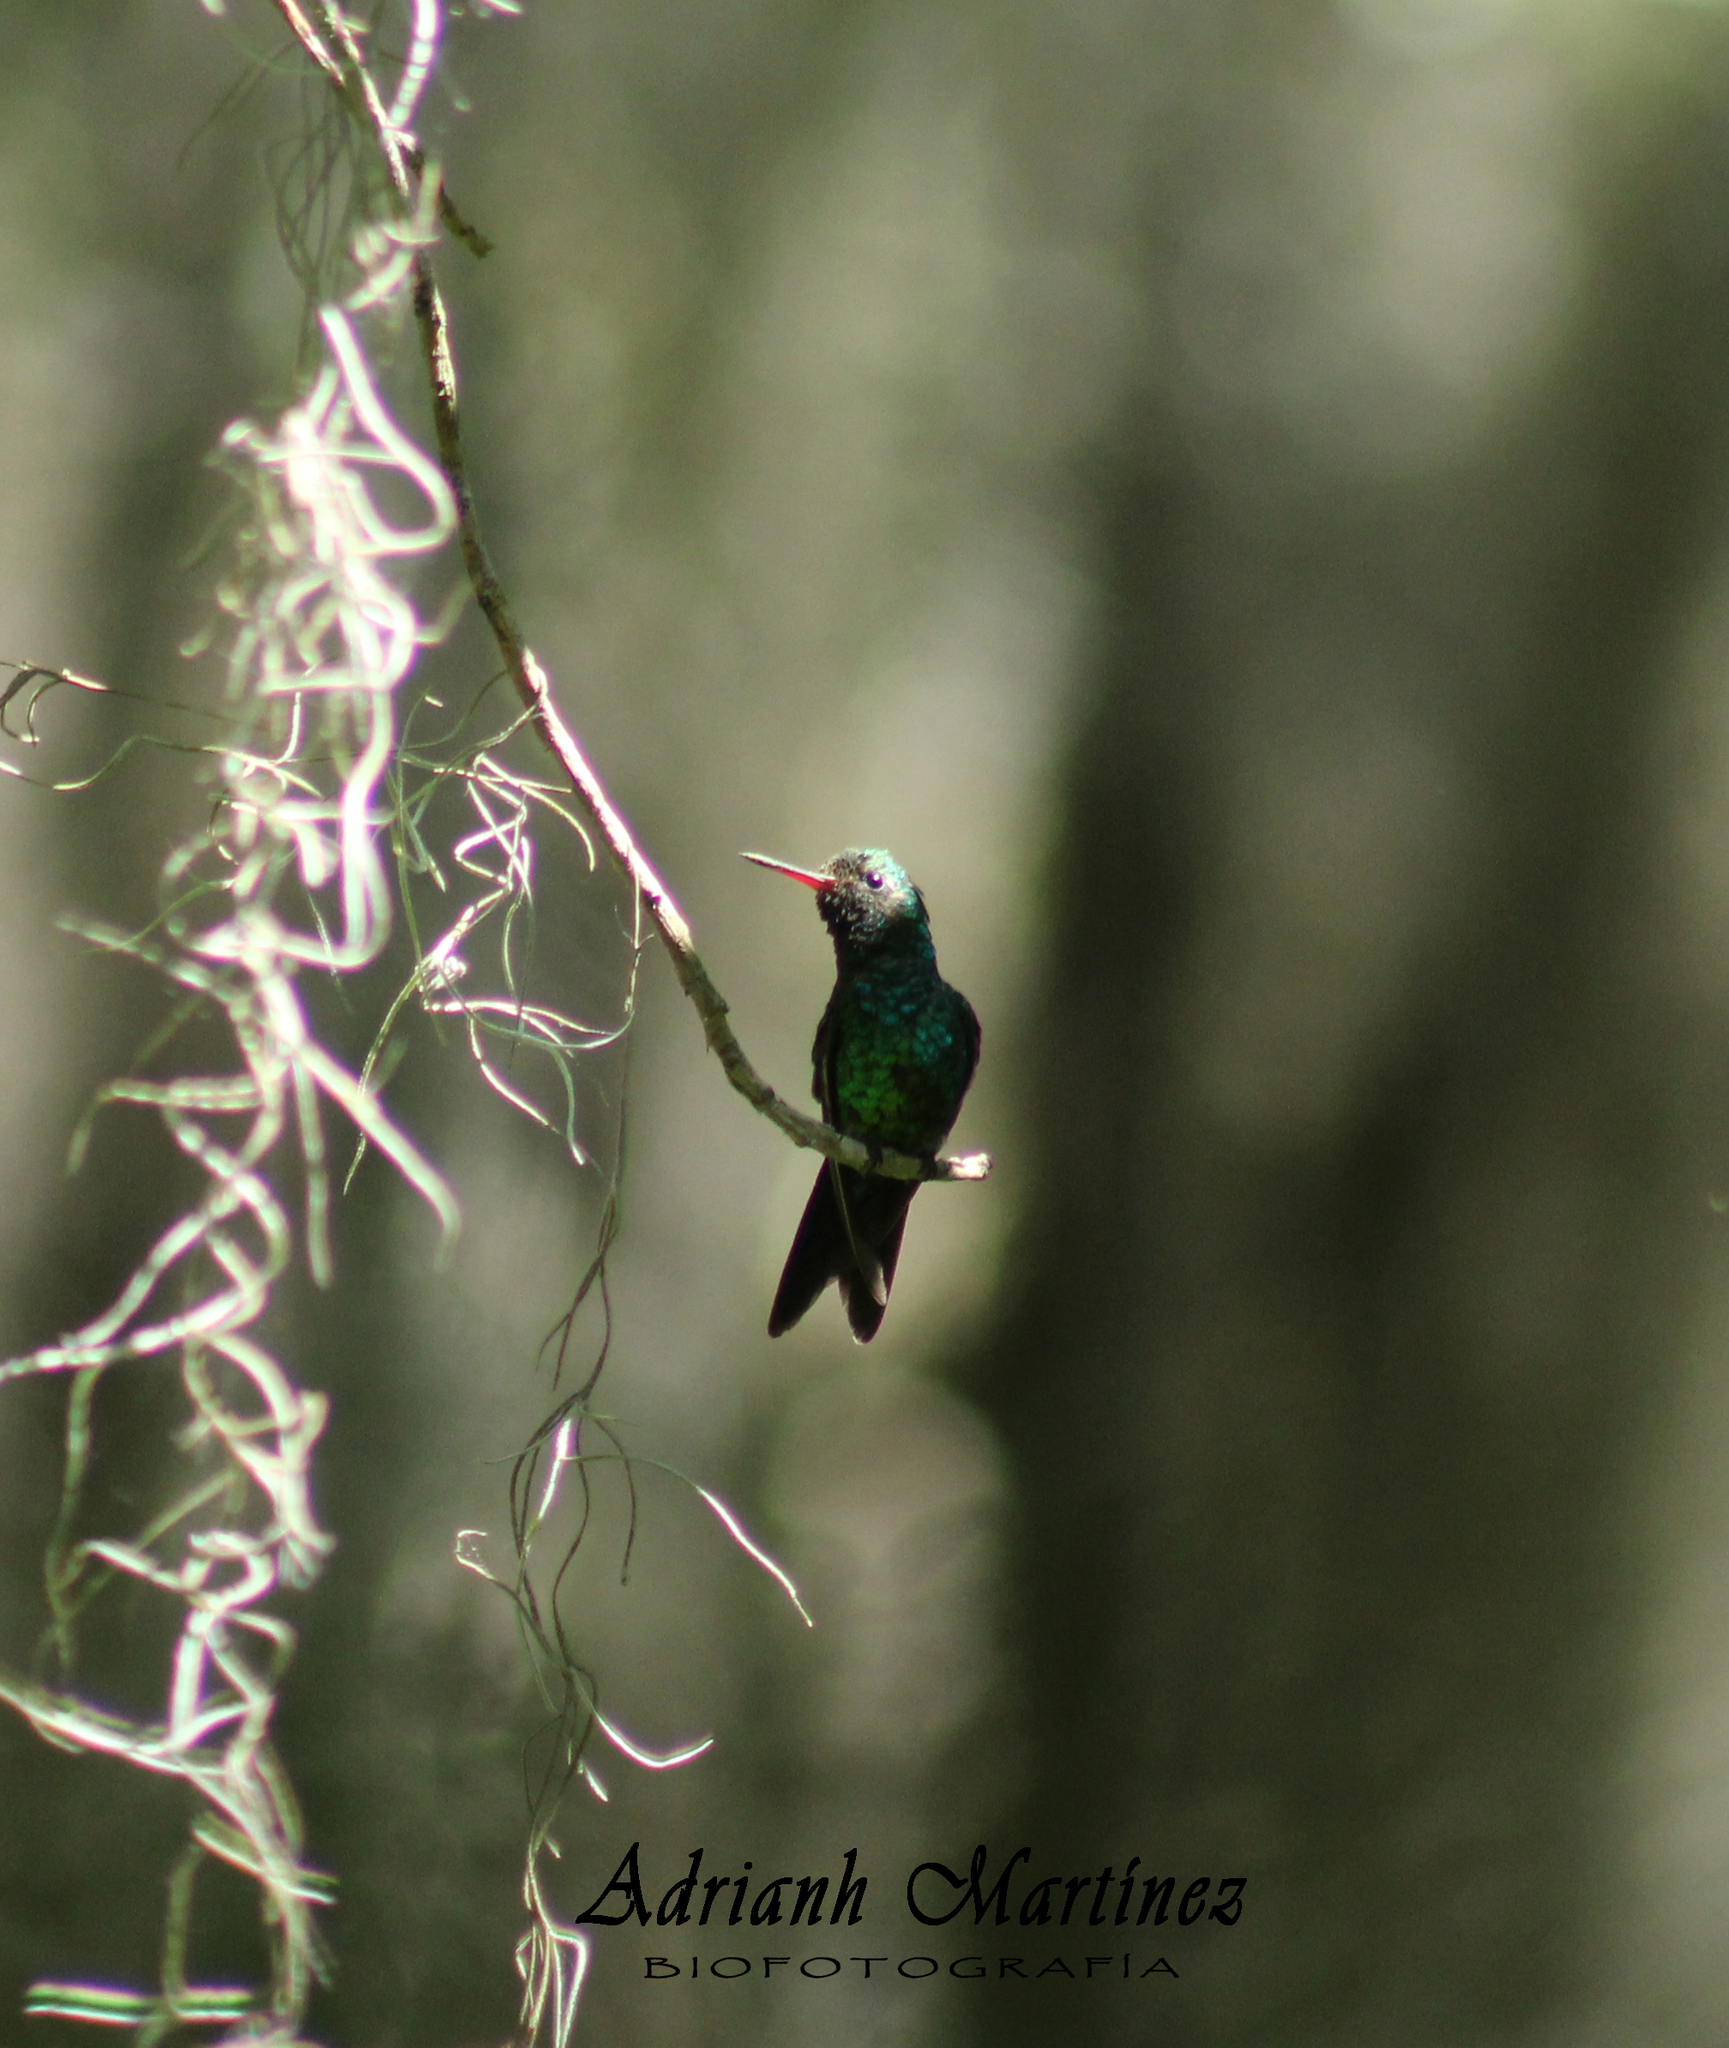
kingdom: Animalia
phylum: Chordata
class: Aves
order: Apodiformes
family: Trochilidae
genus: Cynanthus
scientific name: Cynanthus canivetii
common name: Canivet's emerald
